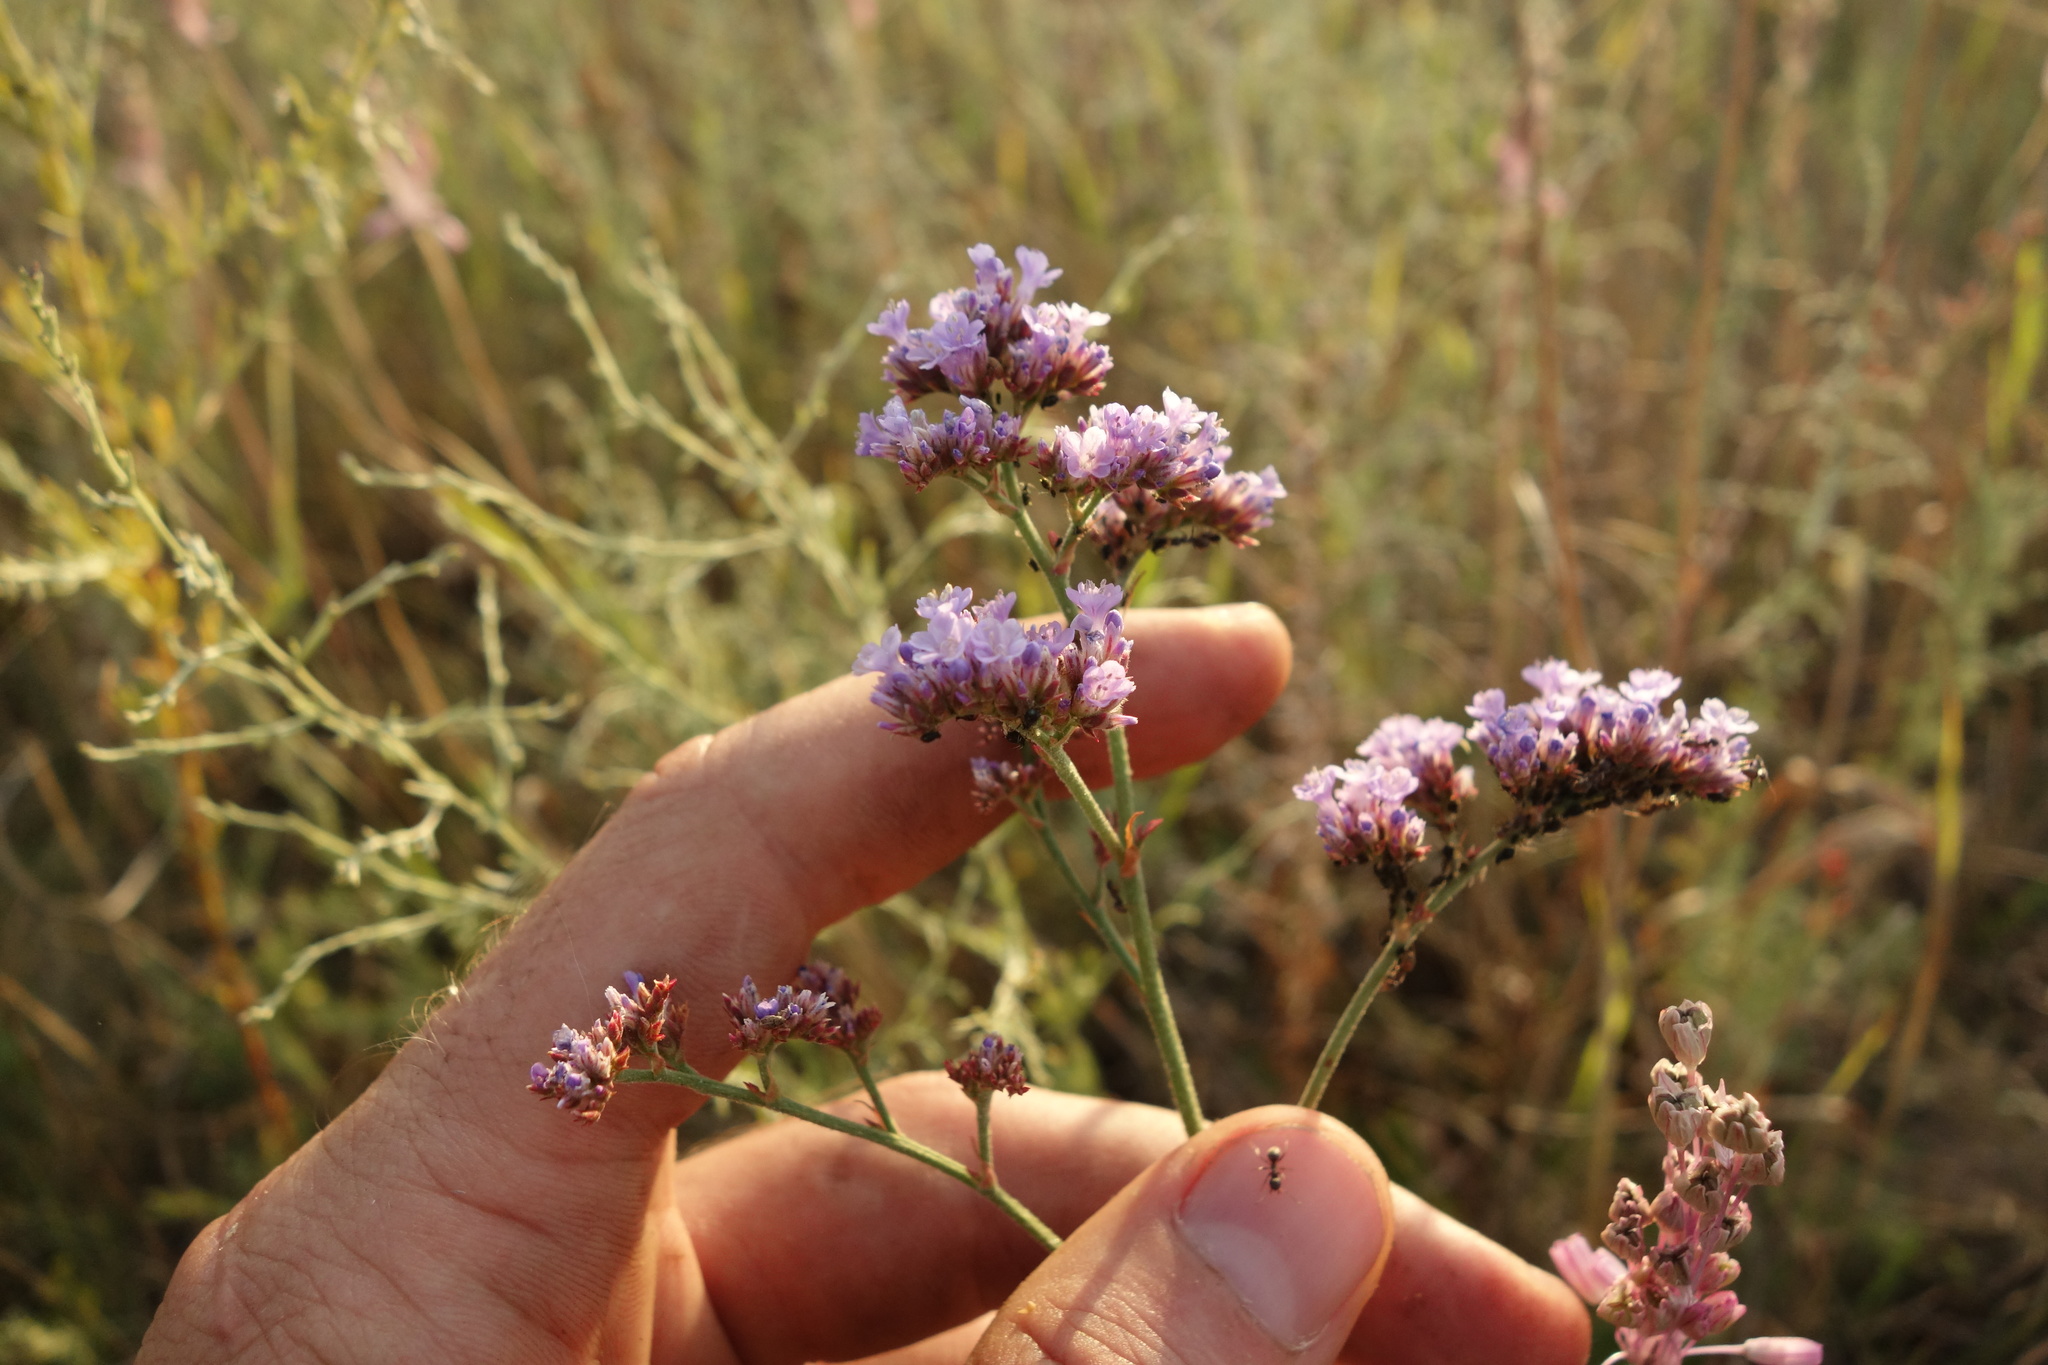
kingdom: Plantae
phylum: Tracheophyta
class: Magnoliopsida
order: Caryophyllales
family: Plumbaginaceae
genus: Limonium
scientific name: Limonium tomentellum
